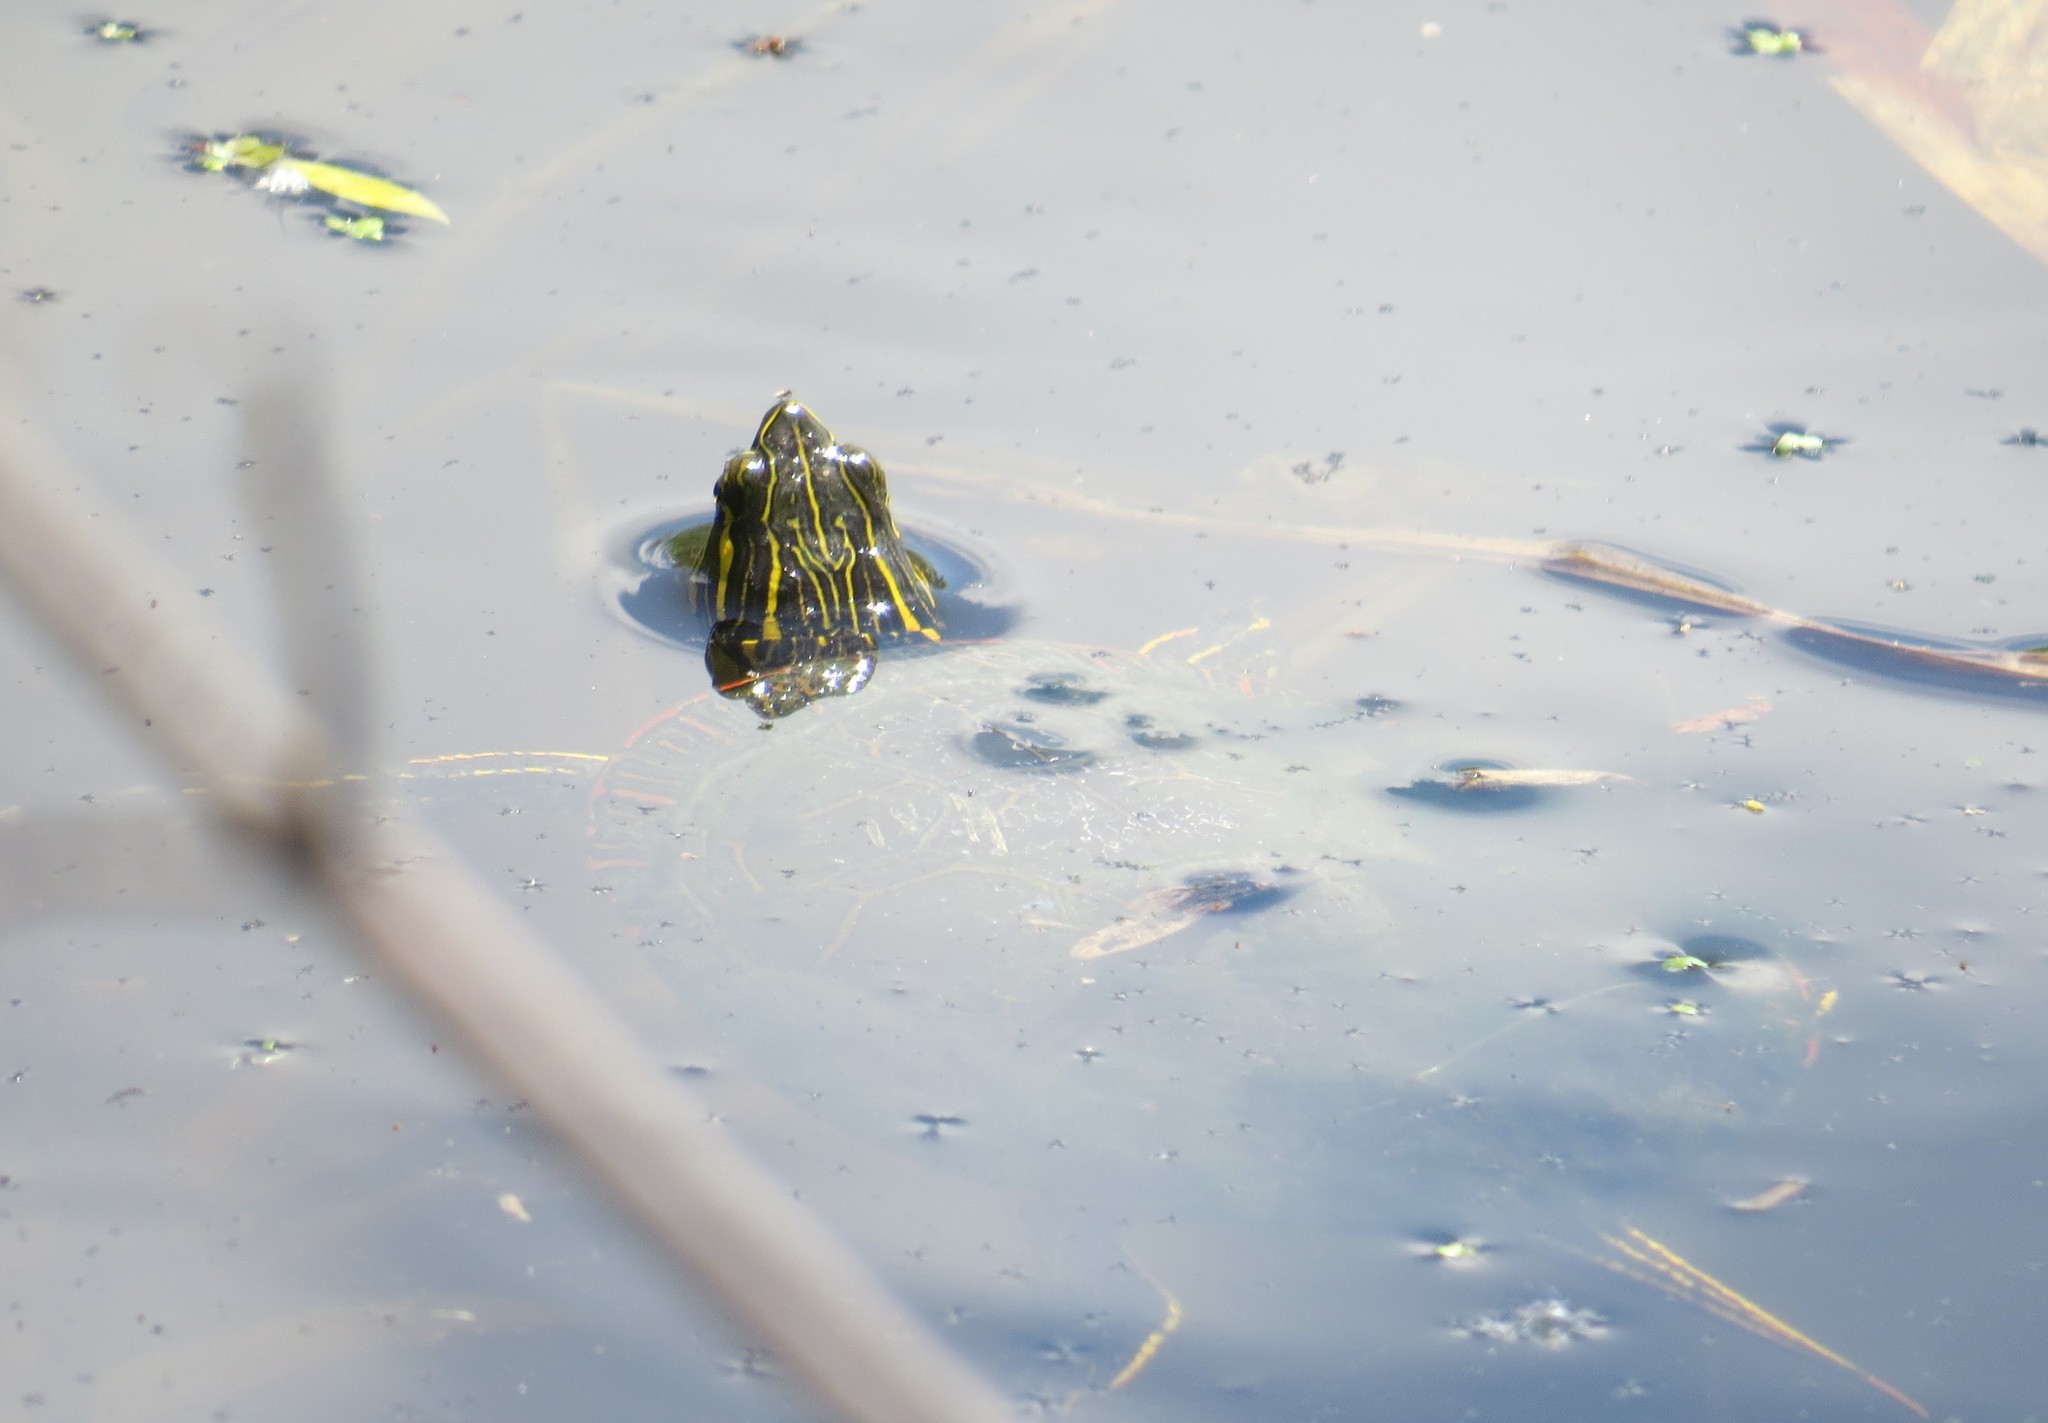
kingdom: Animalia
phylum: Chordata
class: Testudines
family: Emydidae
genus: Chrysemys
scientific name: Chrysemys picta
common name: Painted turtle
